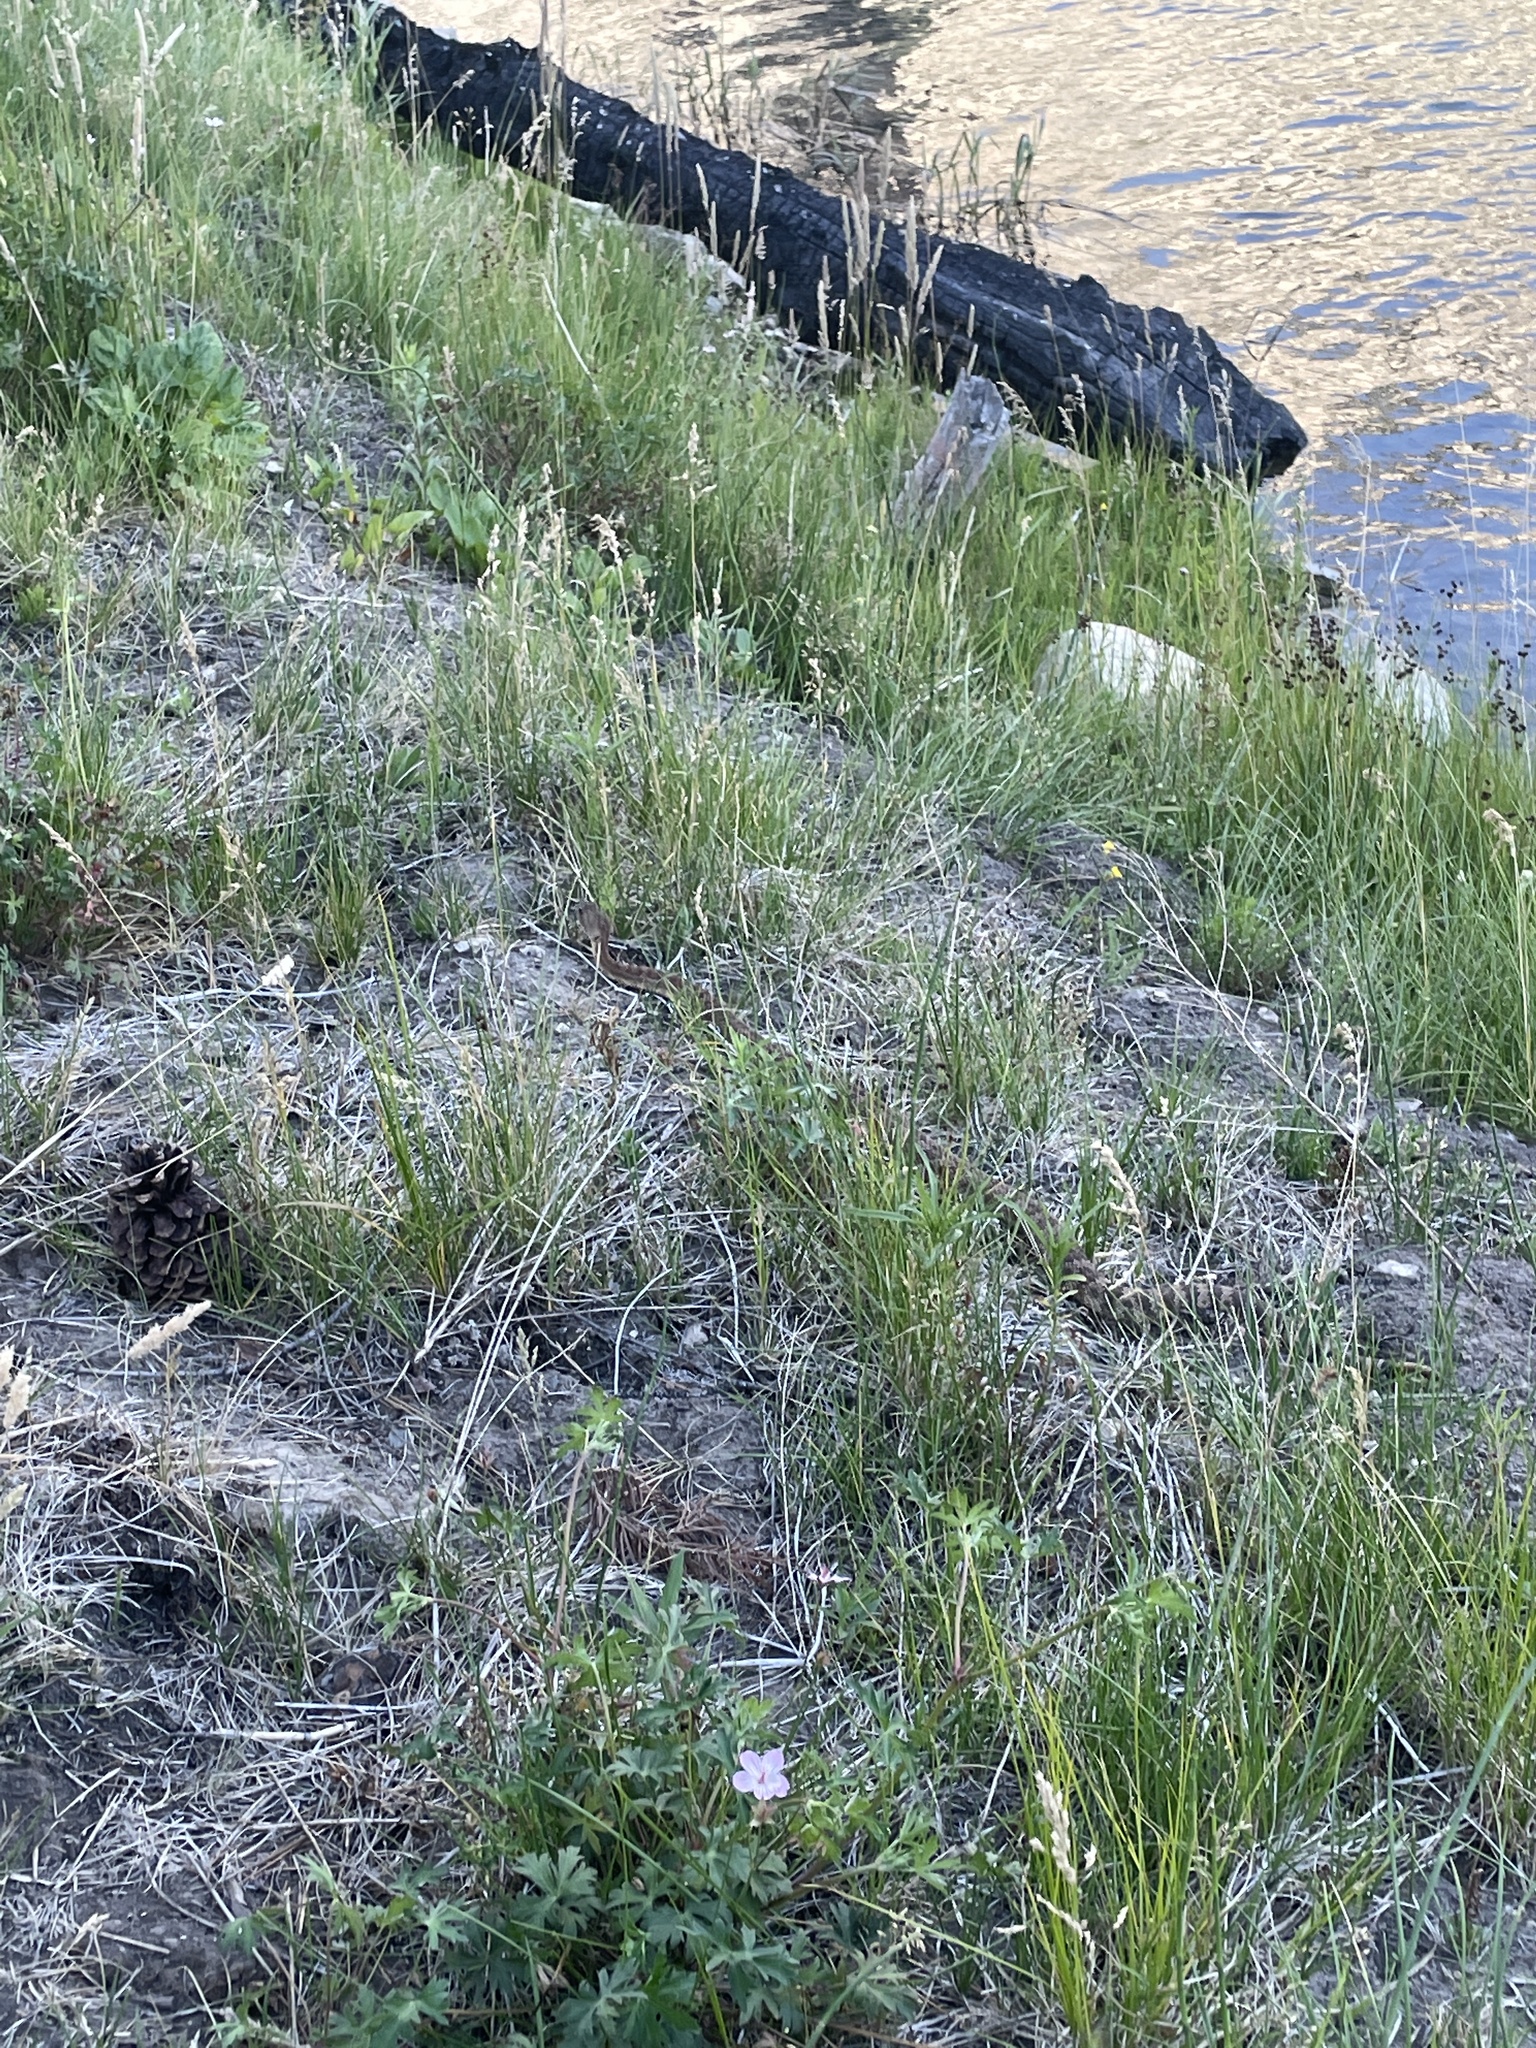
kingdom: Animalia
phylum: Chordata
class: Squamata
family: Viperidae
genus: Crotalus
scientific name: Crotalus oreganus
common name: Abyssus
